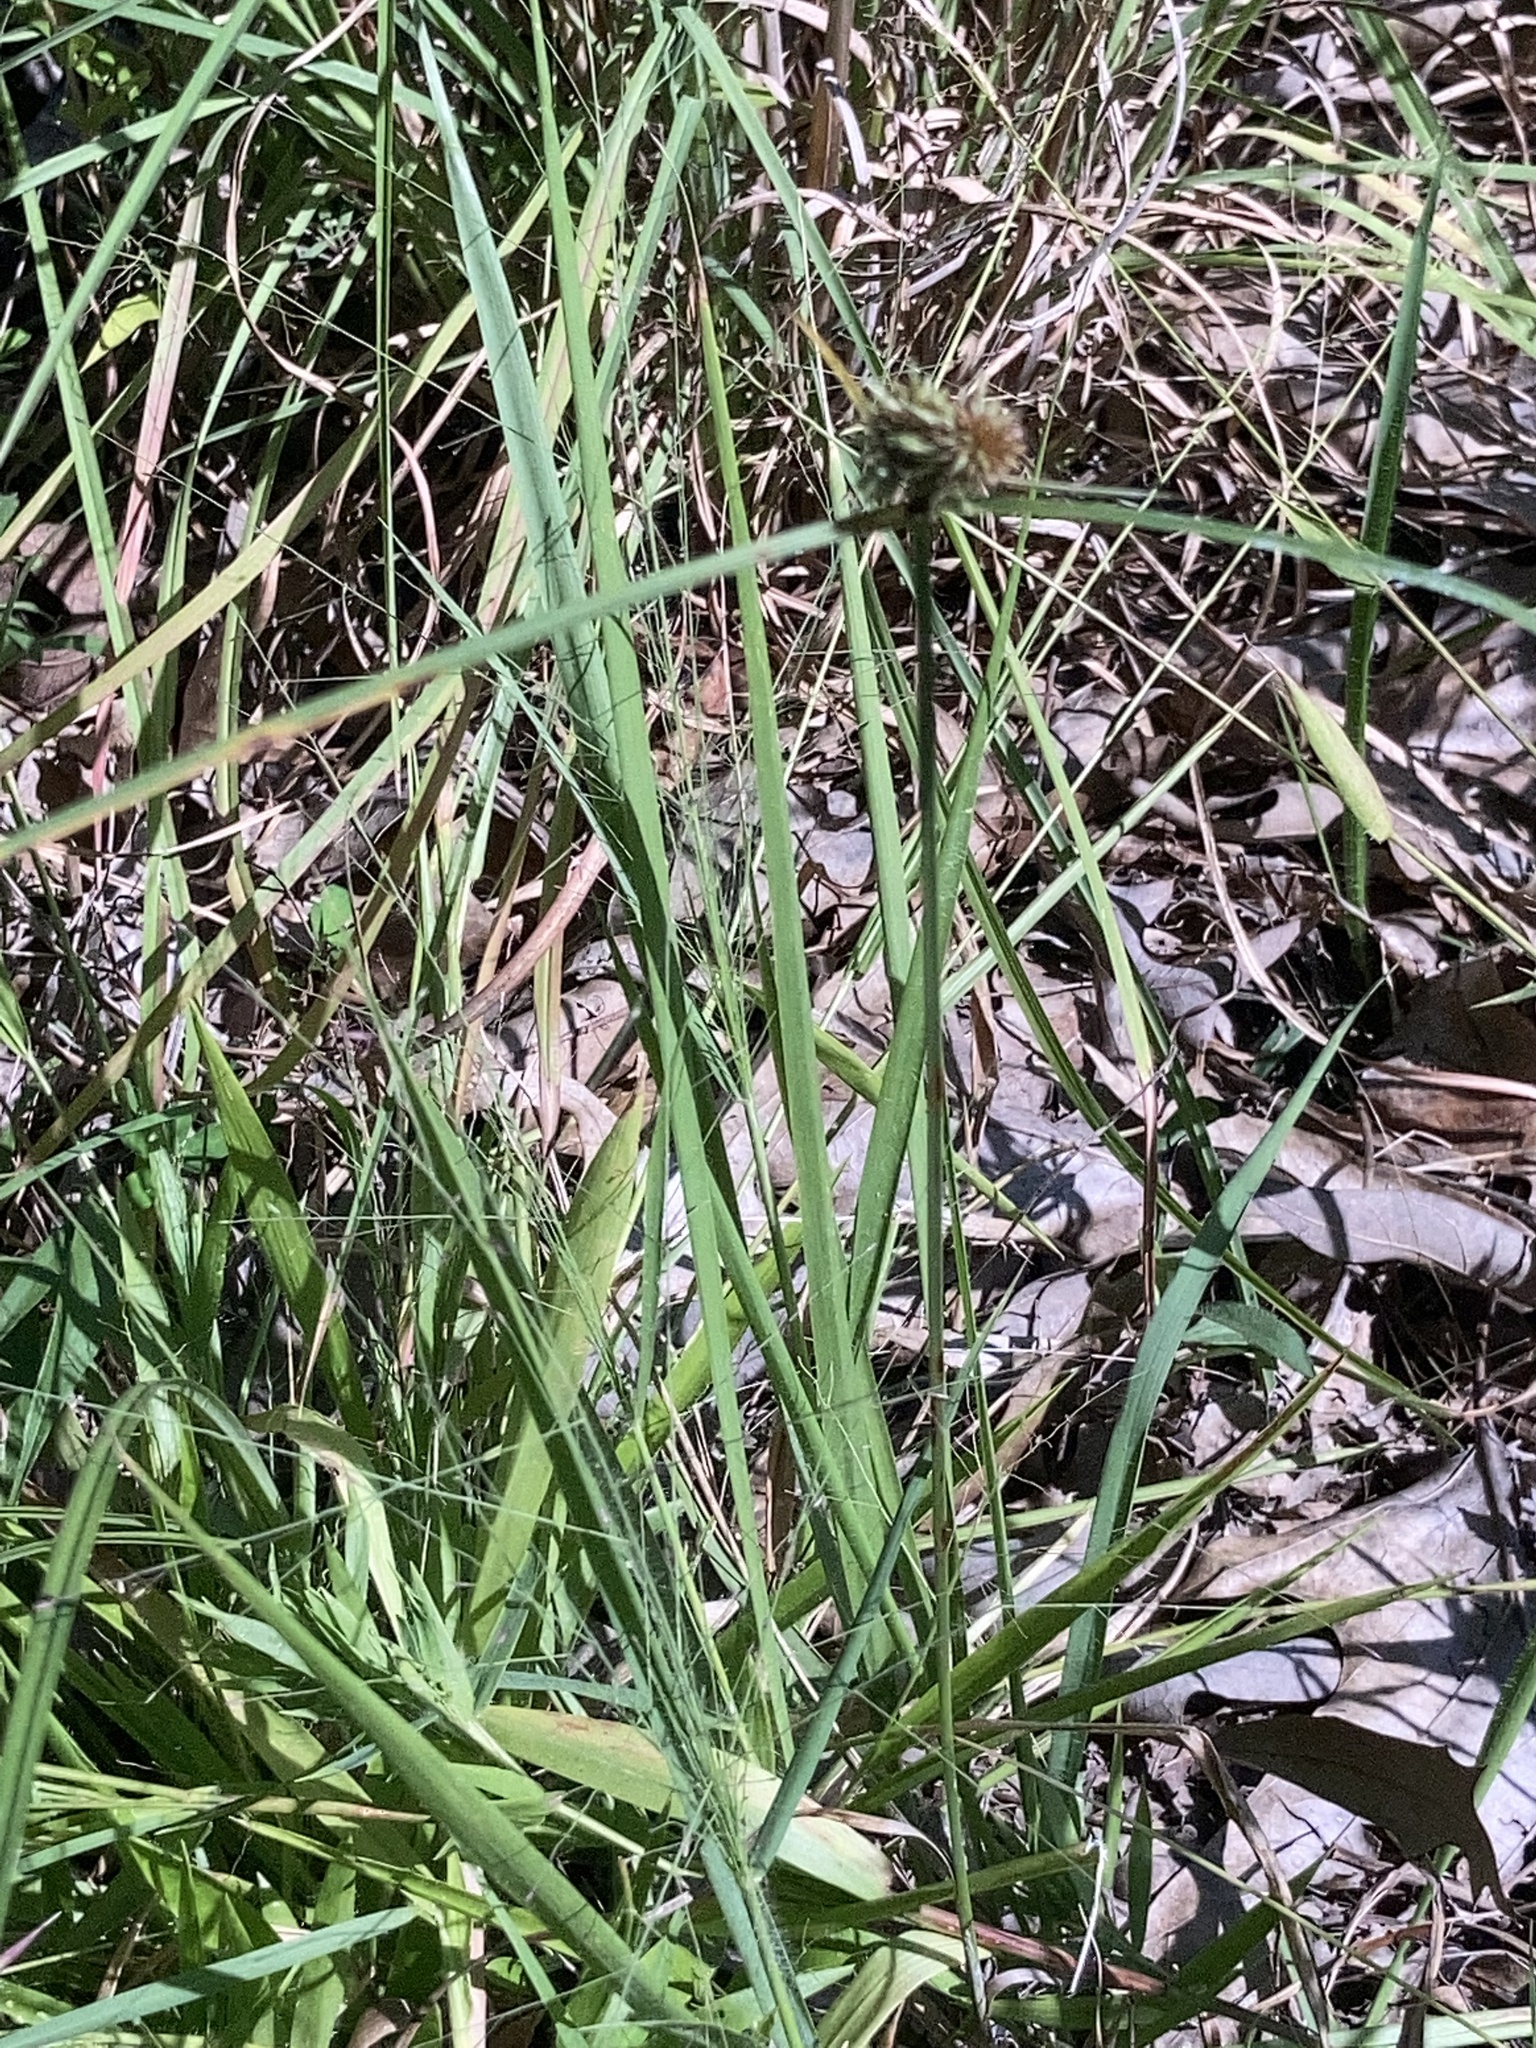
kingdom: Plantae
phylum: Tracheophyta
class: Liliopsida
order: Poales
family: Cyperaceae
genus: Cyperus
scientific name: Cyperus echinatus
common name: Teasel sedge
